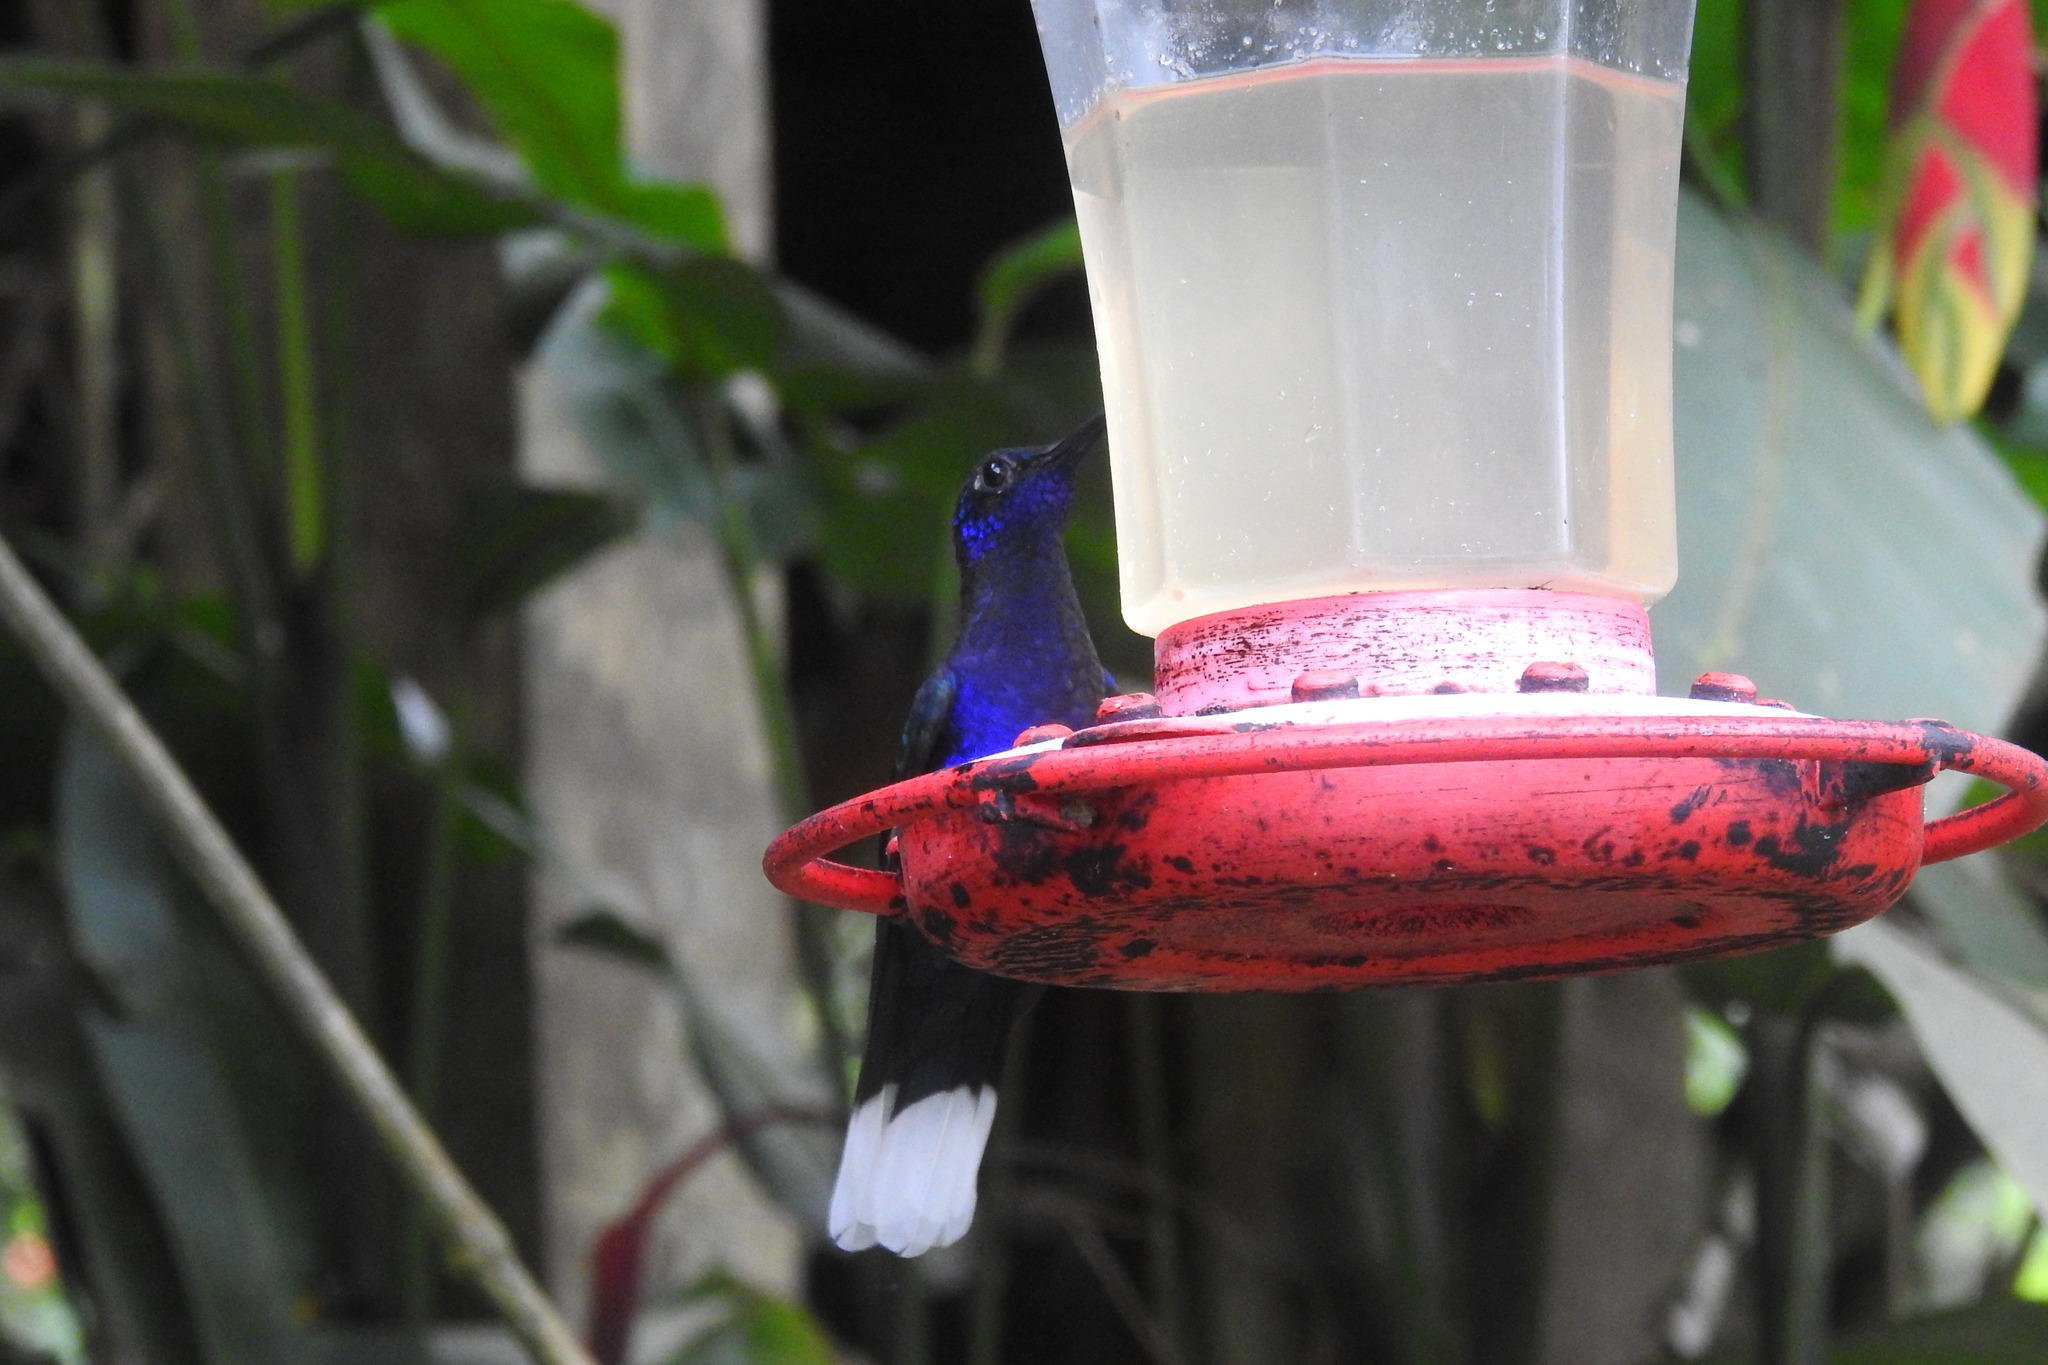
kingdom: Animalia
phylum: Chordata
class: Aves
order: Apodiformes
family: Trochilidae
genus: Campylopterus
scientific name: Campylopterus hemileucurus
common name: Violet sabrewing
